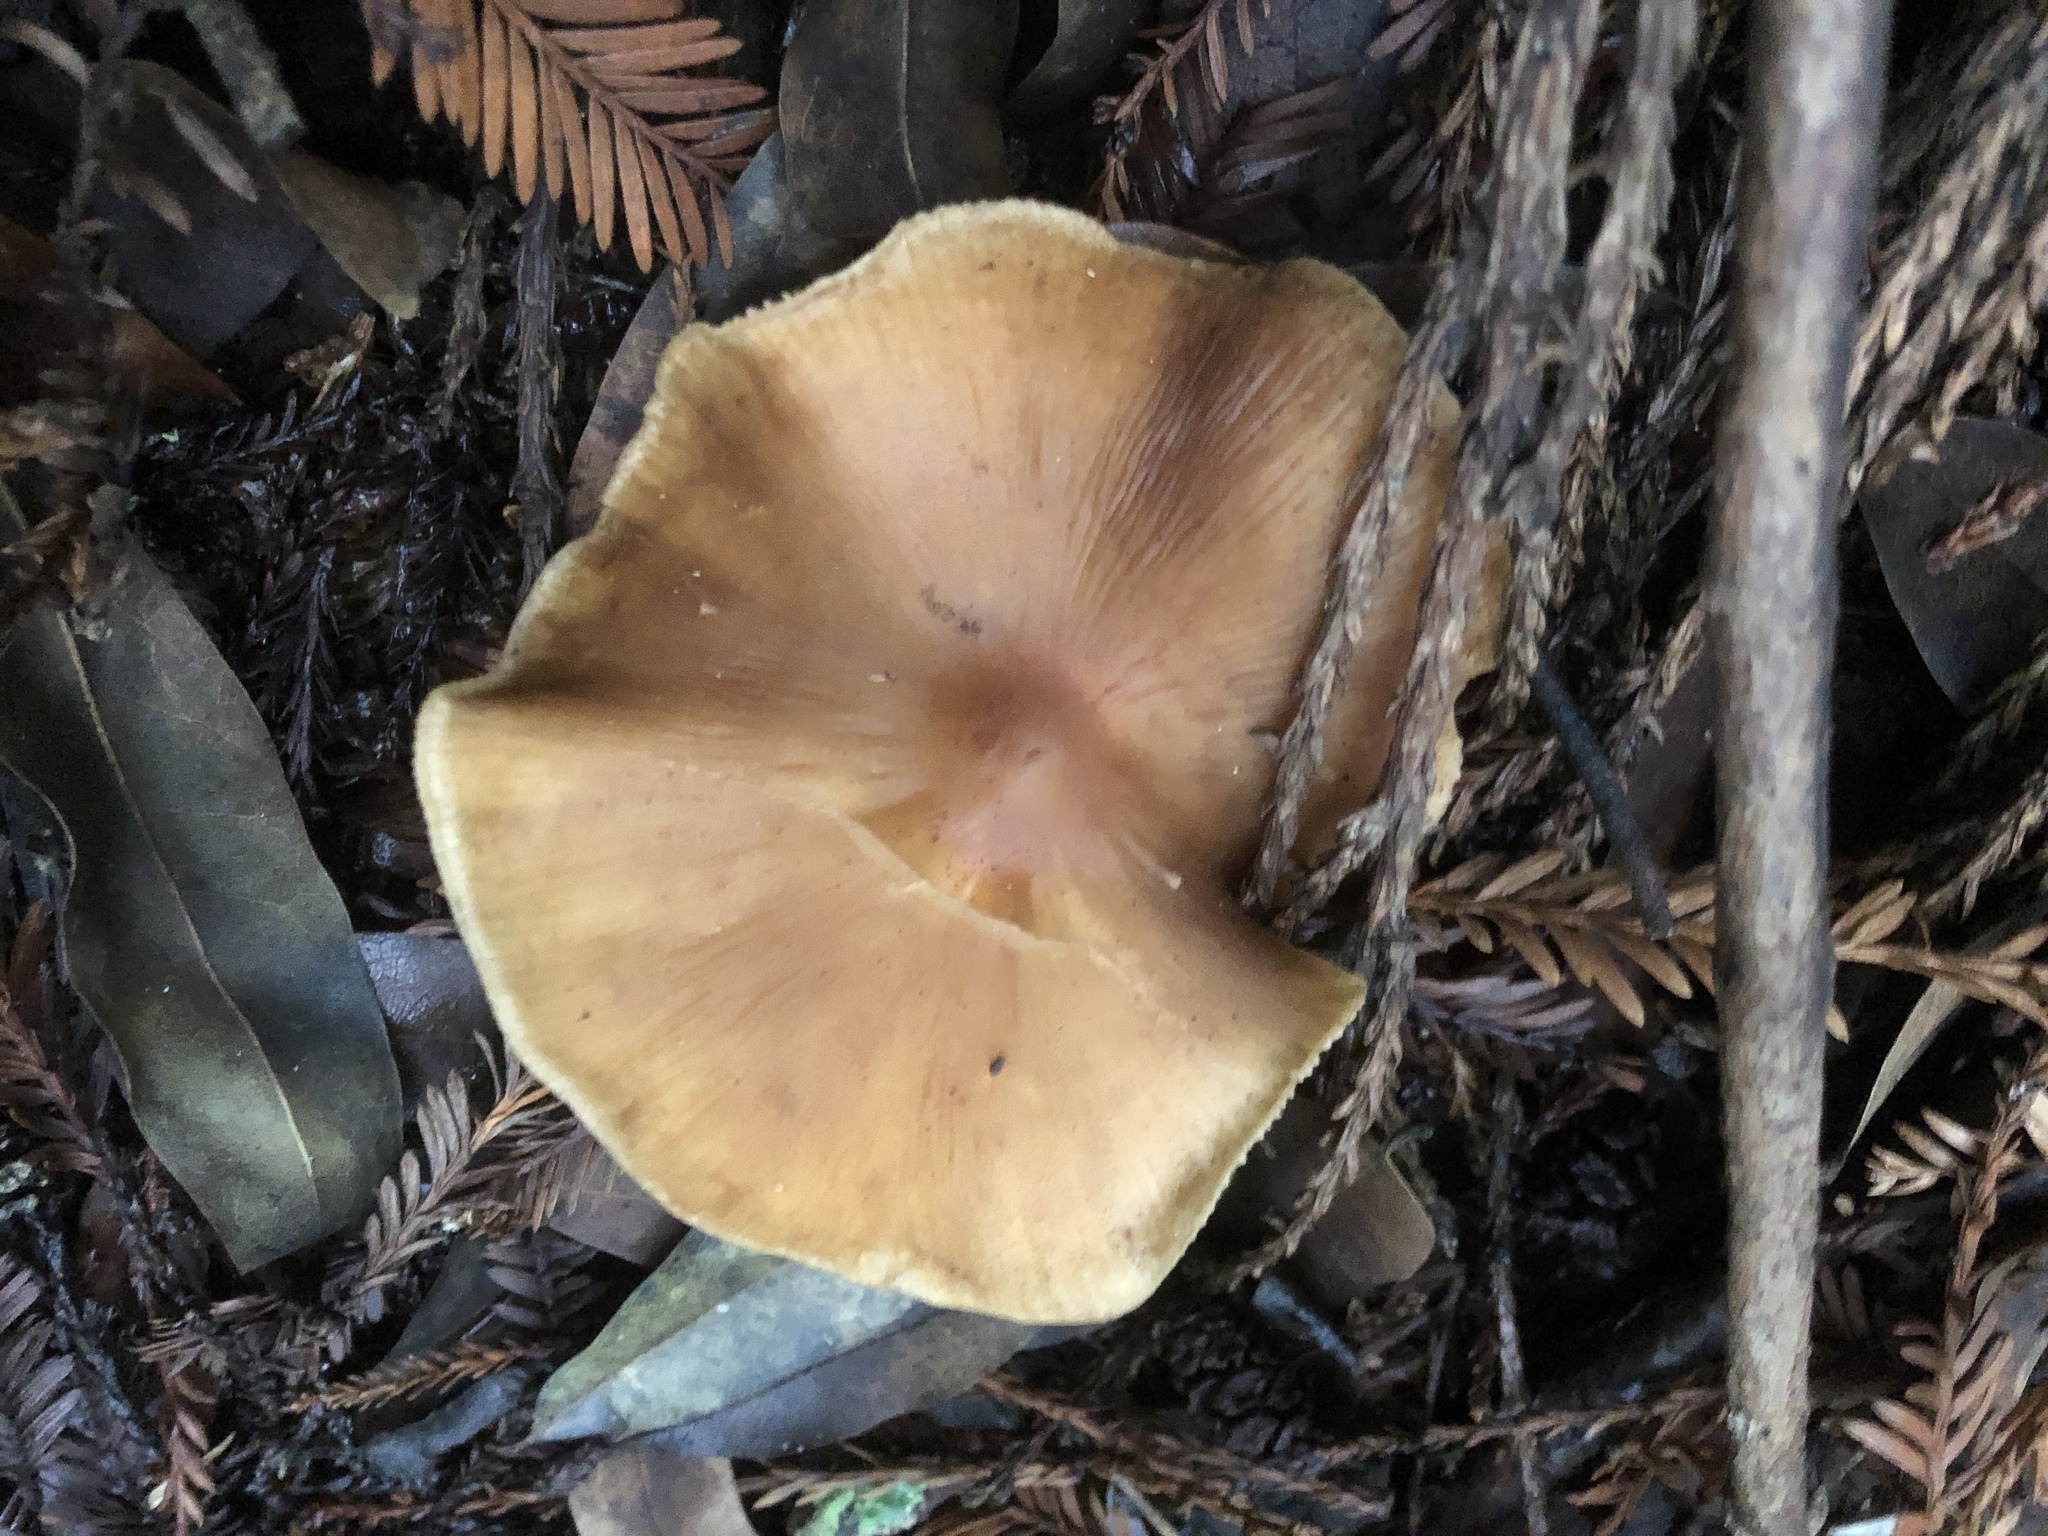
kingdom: Fungi
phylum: Basidiomycota
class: Agaricomycetes
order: Agaricales
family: Tricholomataceae
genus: Caulorhiza
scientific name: Caulorhiza umbonata
